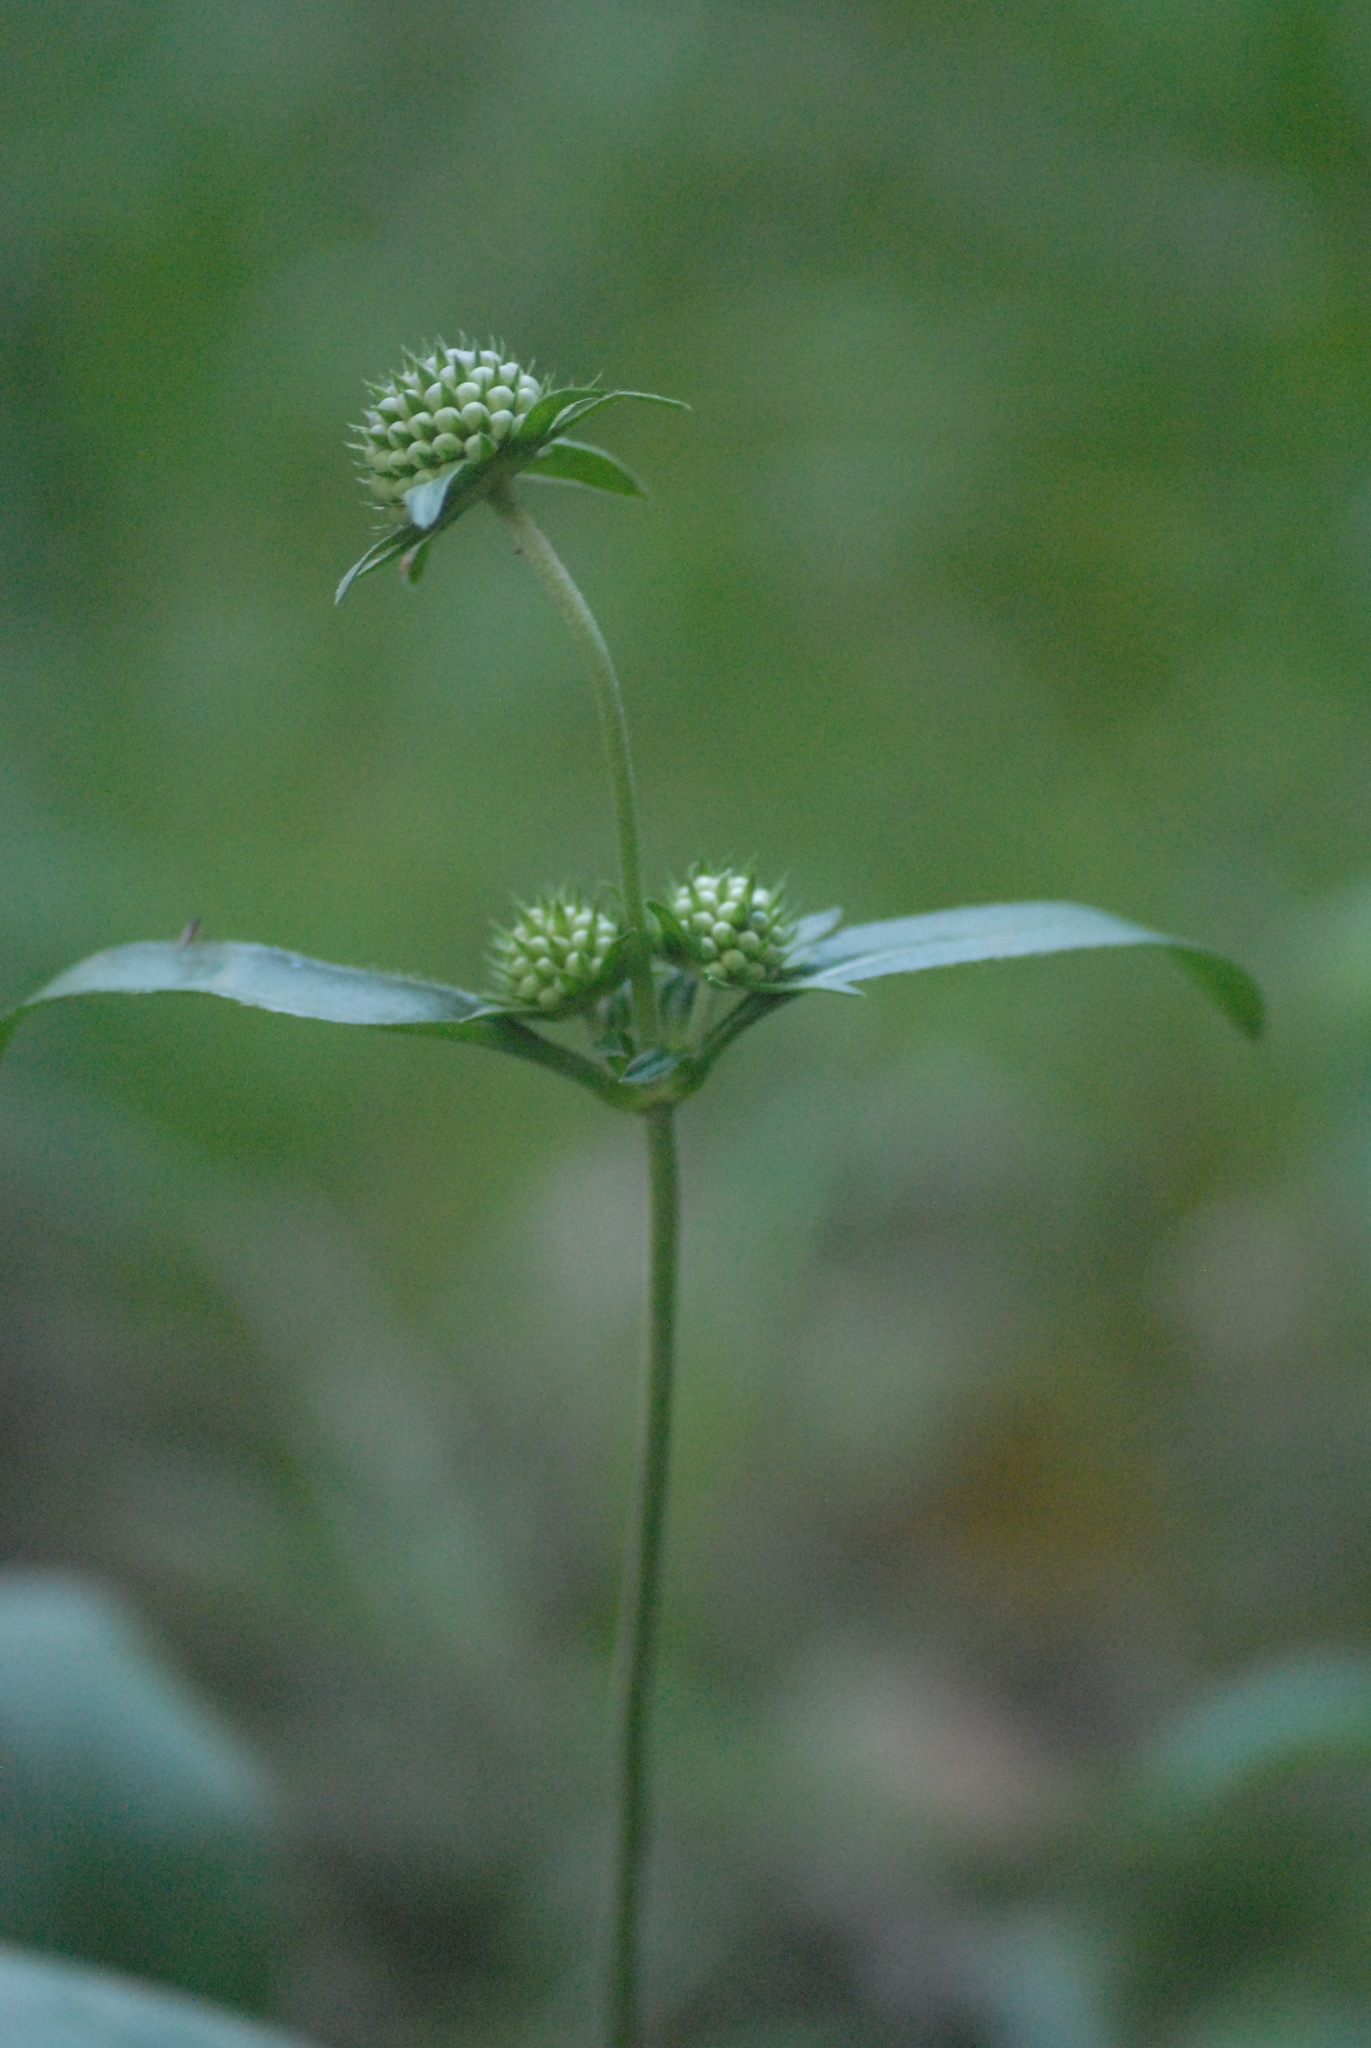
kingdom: Plantae
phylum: Tracheophyta
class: Magnoliopsida
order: Dipsacales
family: Caprifoliaceae
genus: Succisa
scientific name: Succisa pratensis
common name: Devil's-bit
